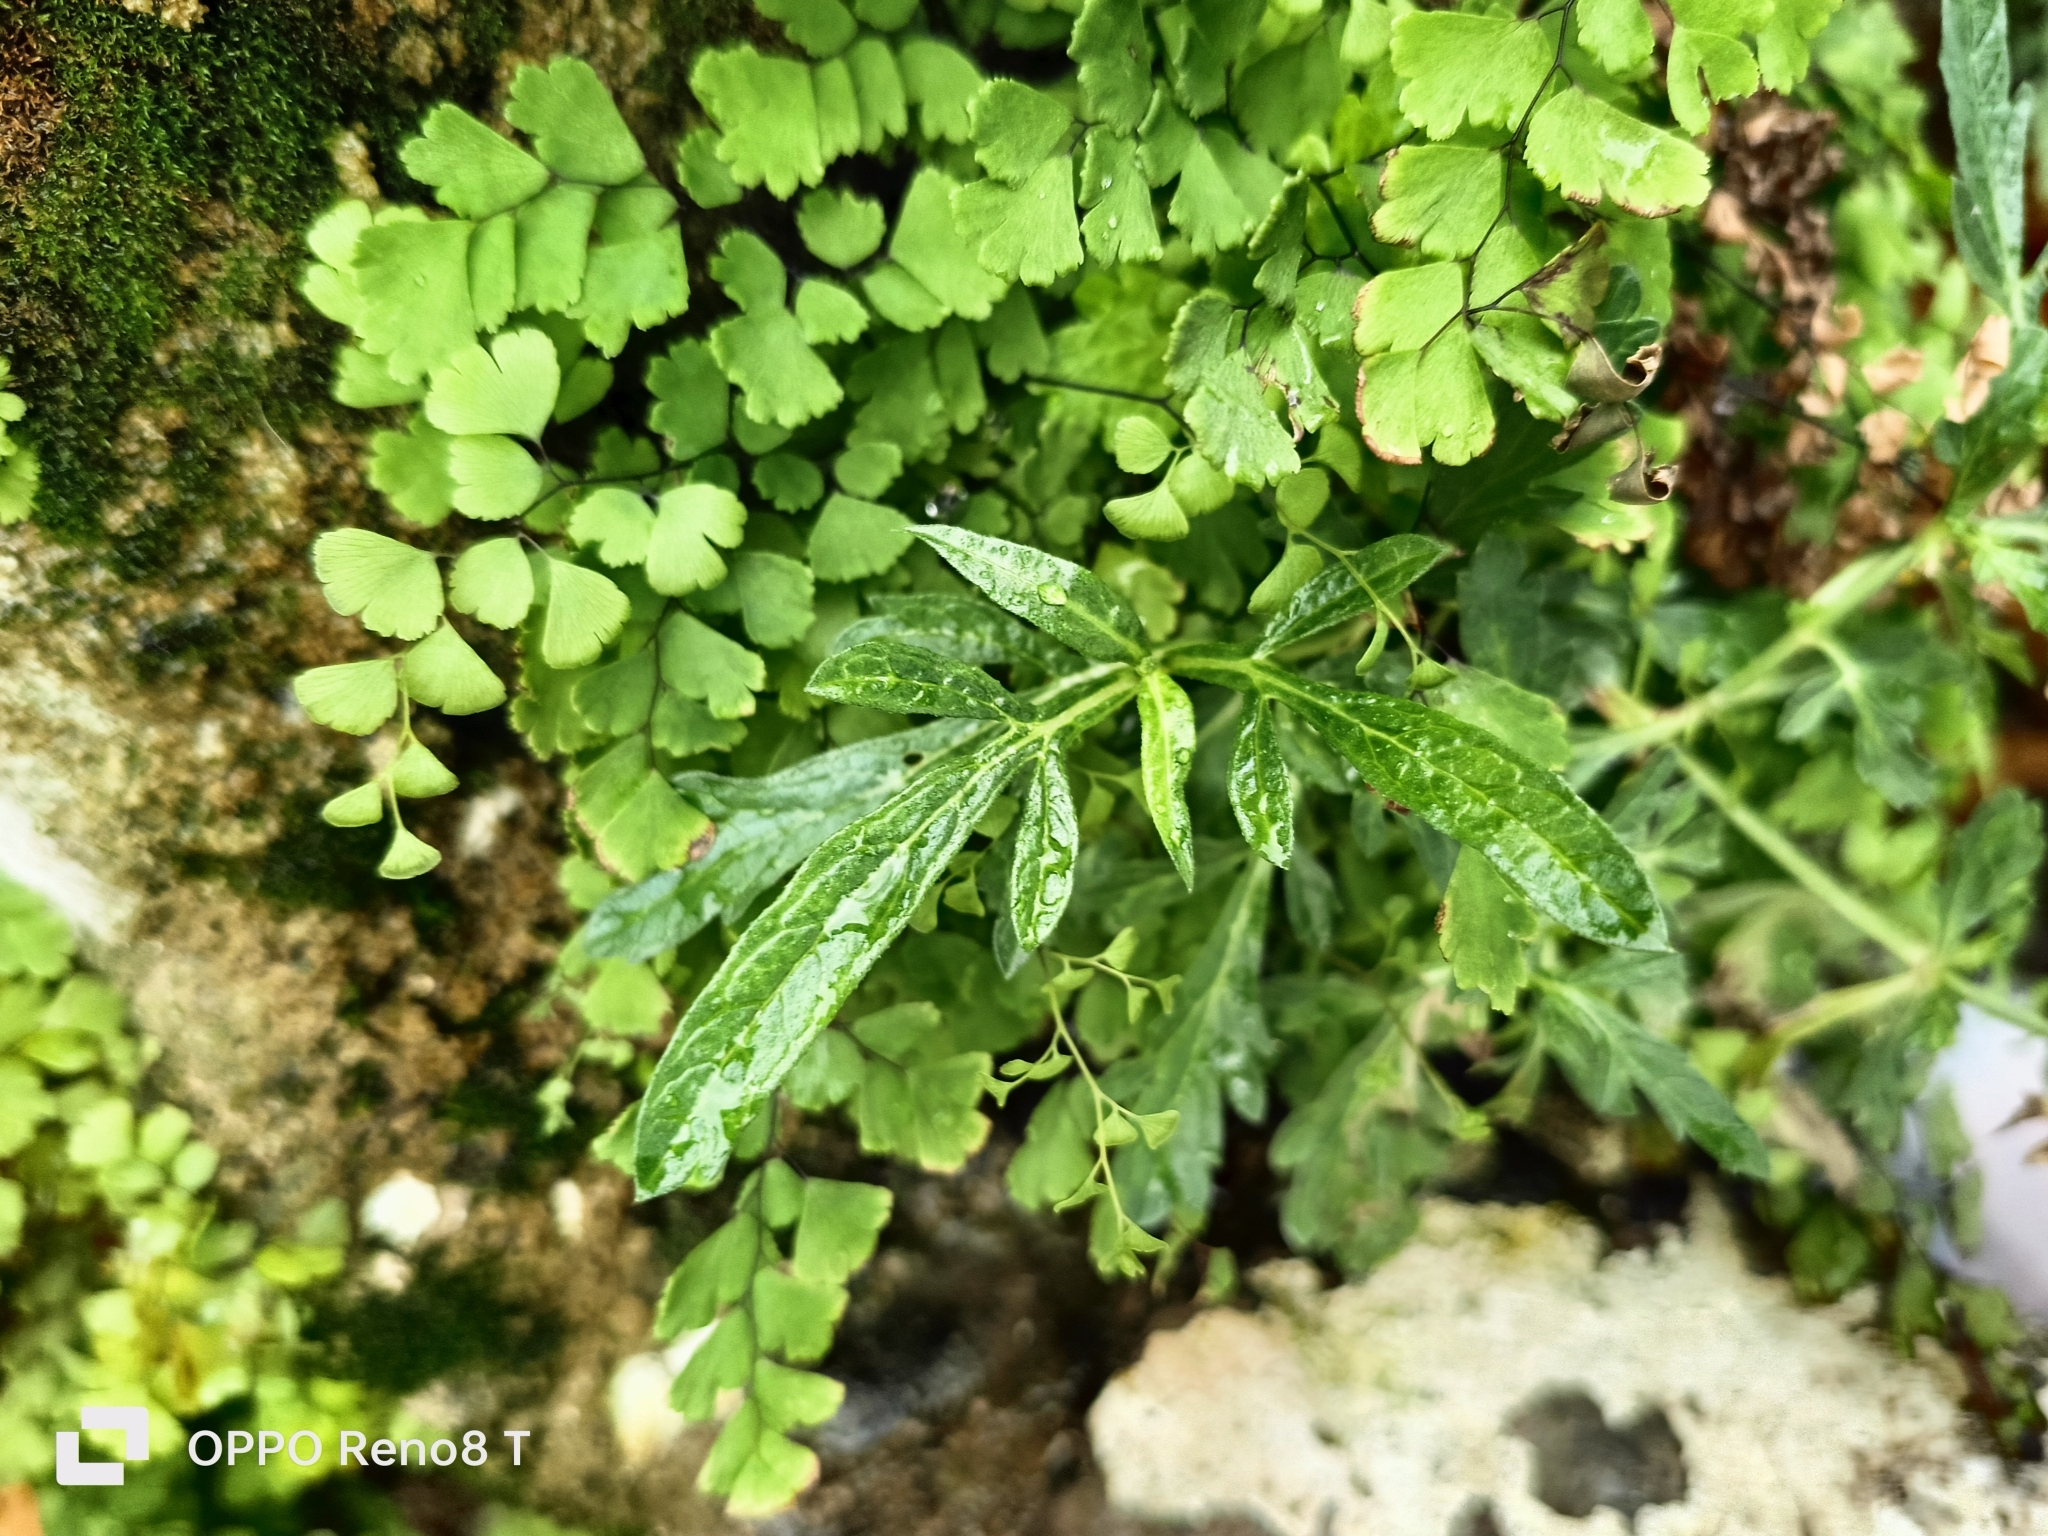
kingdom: Plantae
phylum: Tracheophyta
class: Polypodiopsida
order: Polypodiales
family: Pteridaceae
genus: Adiantum
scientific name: Adiantum capillus-veneris
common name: Maidenhair fern
